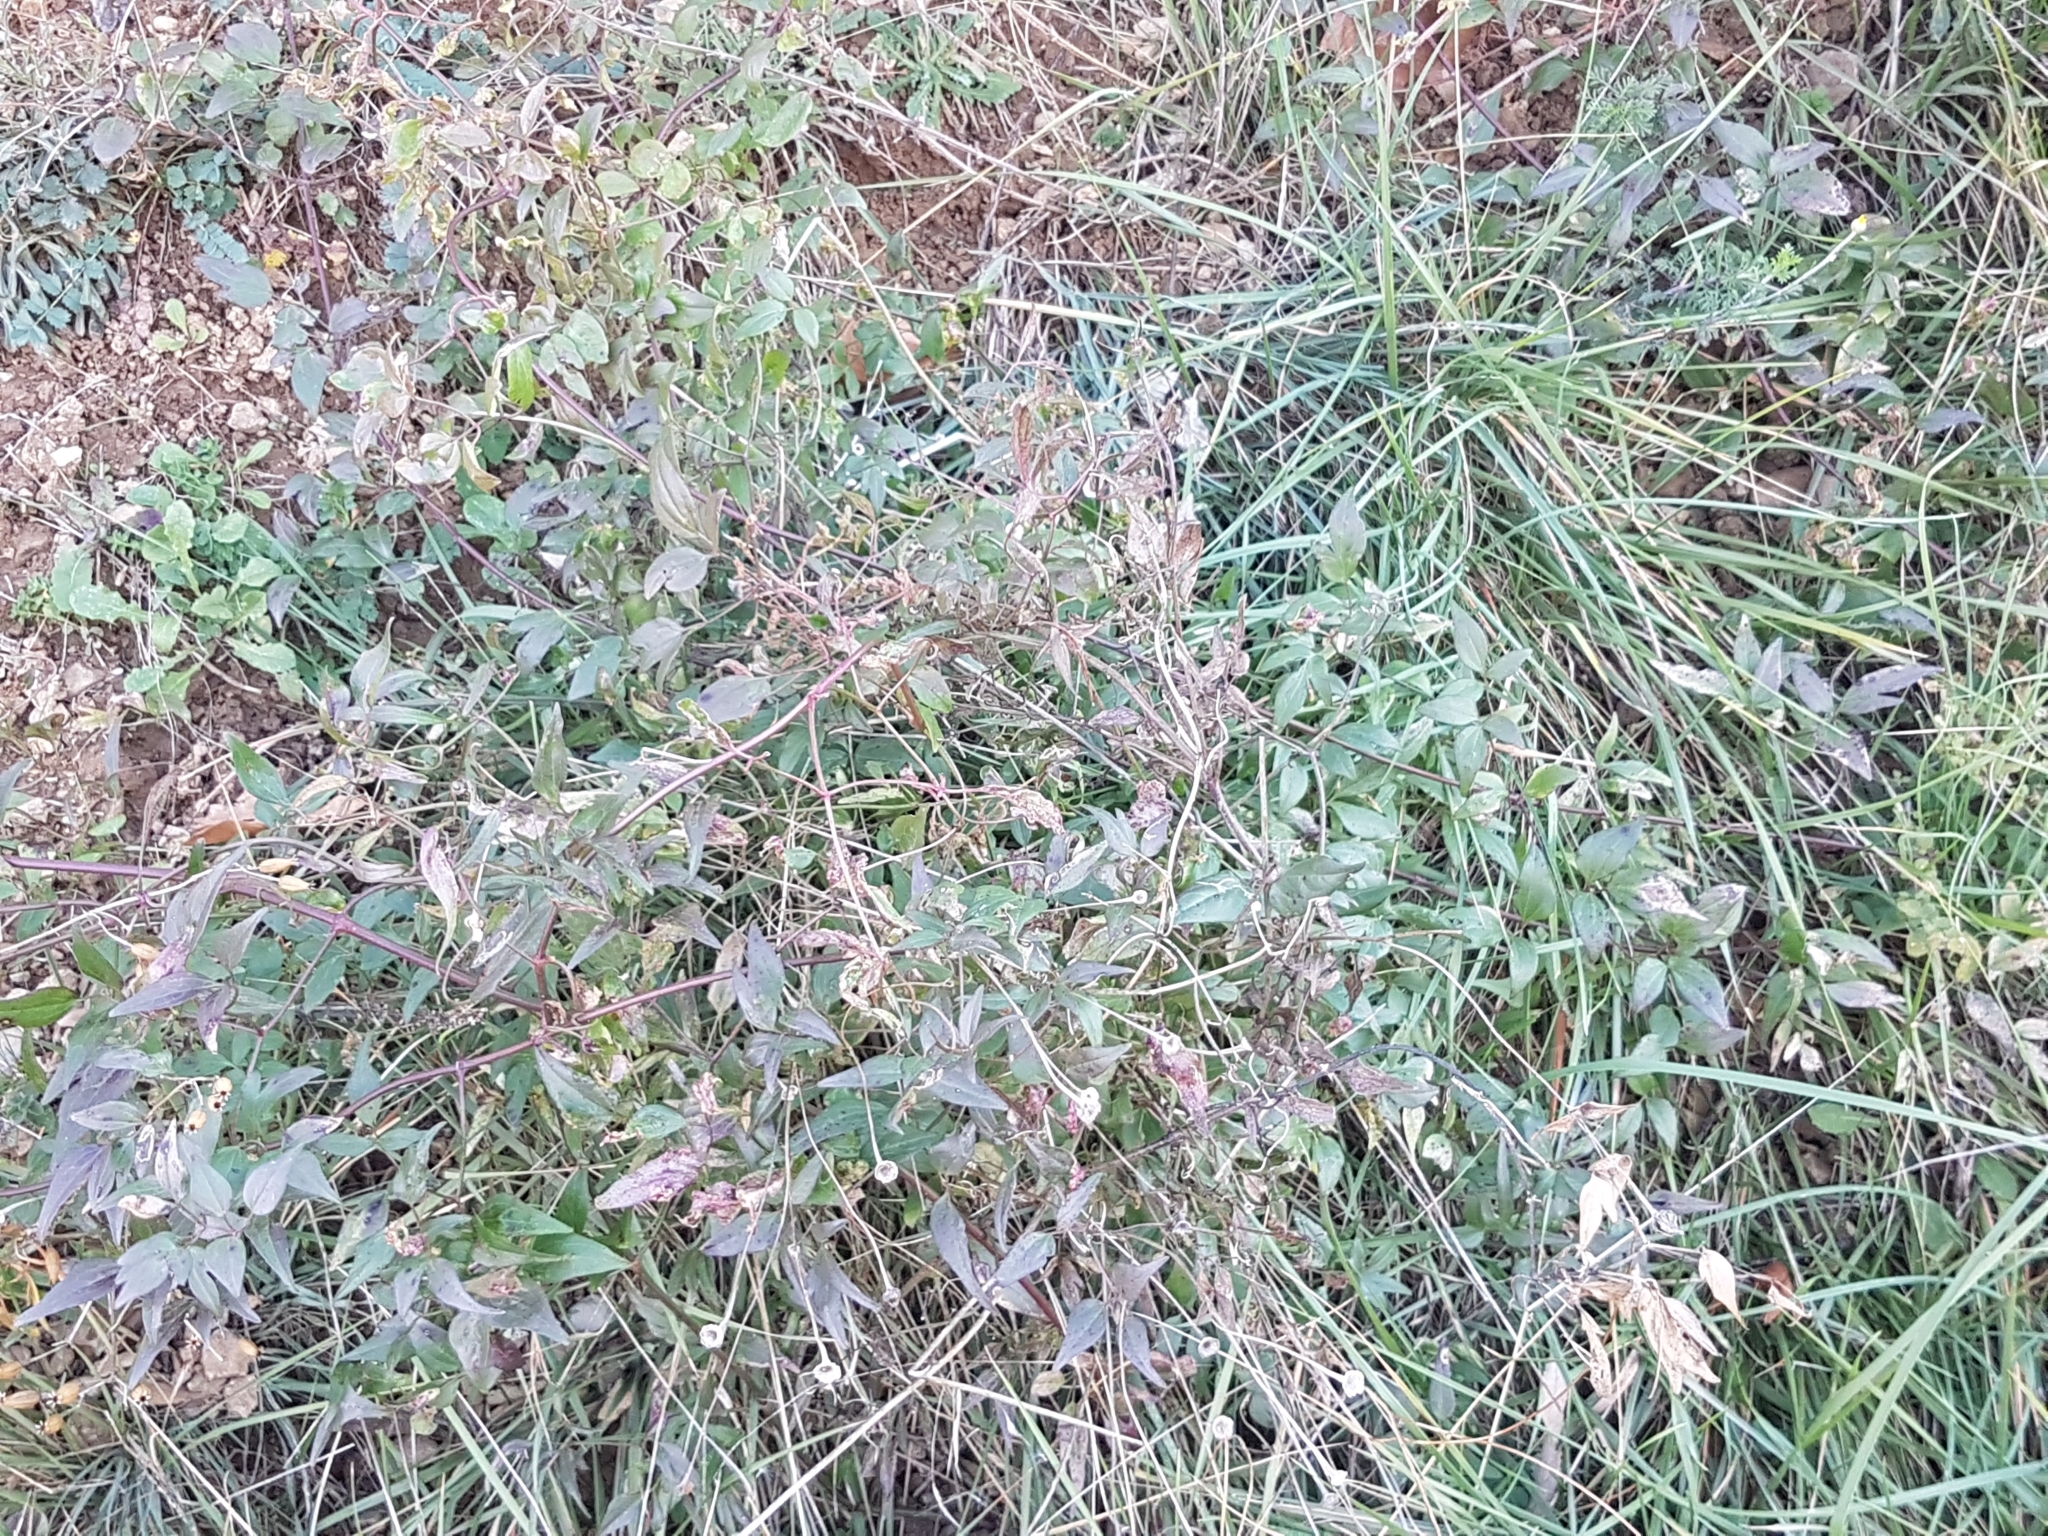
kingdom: Plantae
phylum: Tracheophyta
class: Magnoliopsida
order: Ranunculales
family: Ranunculaceae
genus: Clematis
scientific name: Clematis flammula
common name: Virgin's-bower
